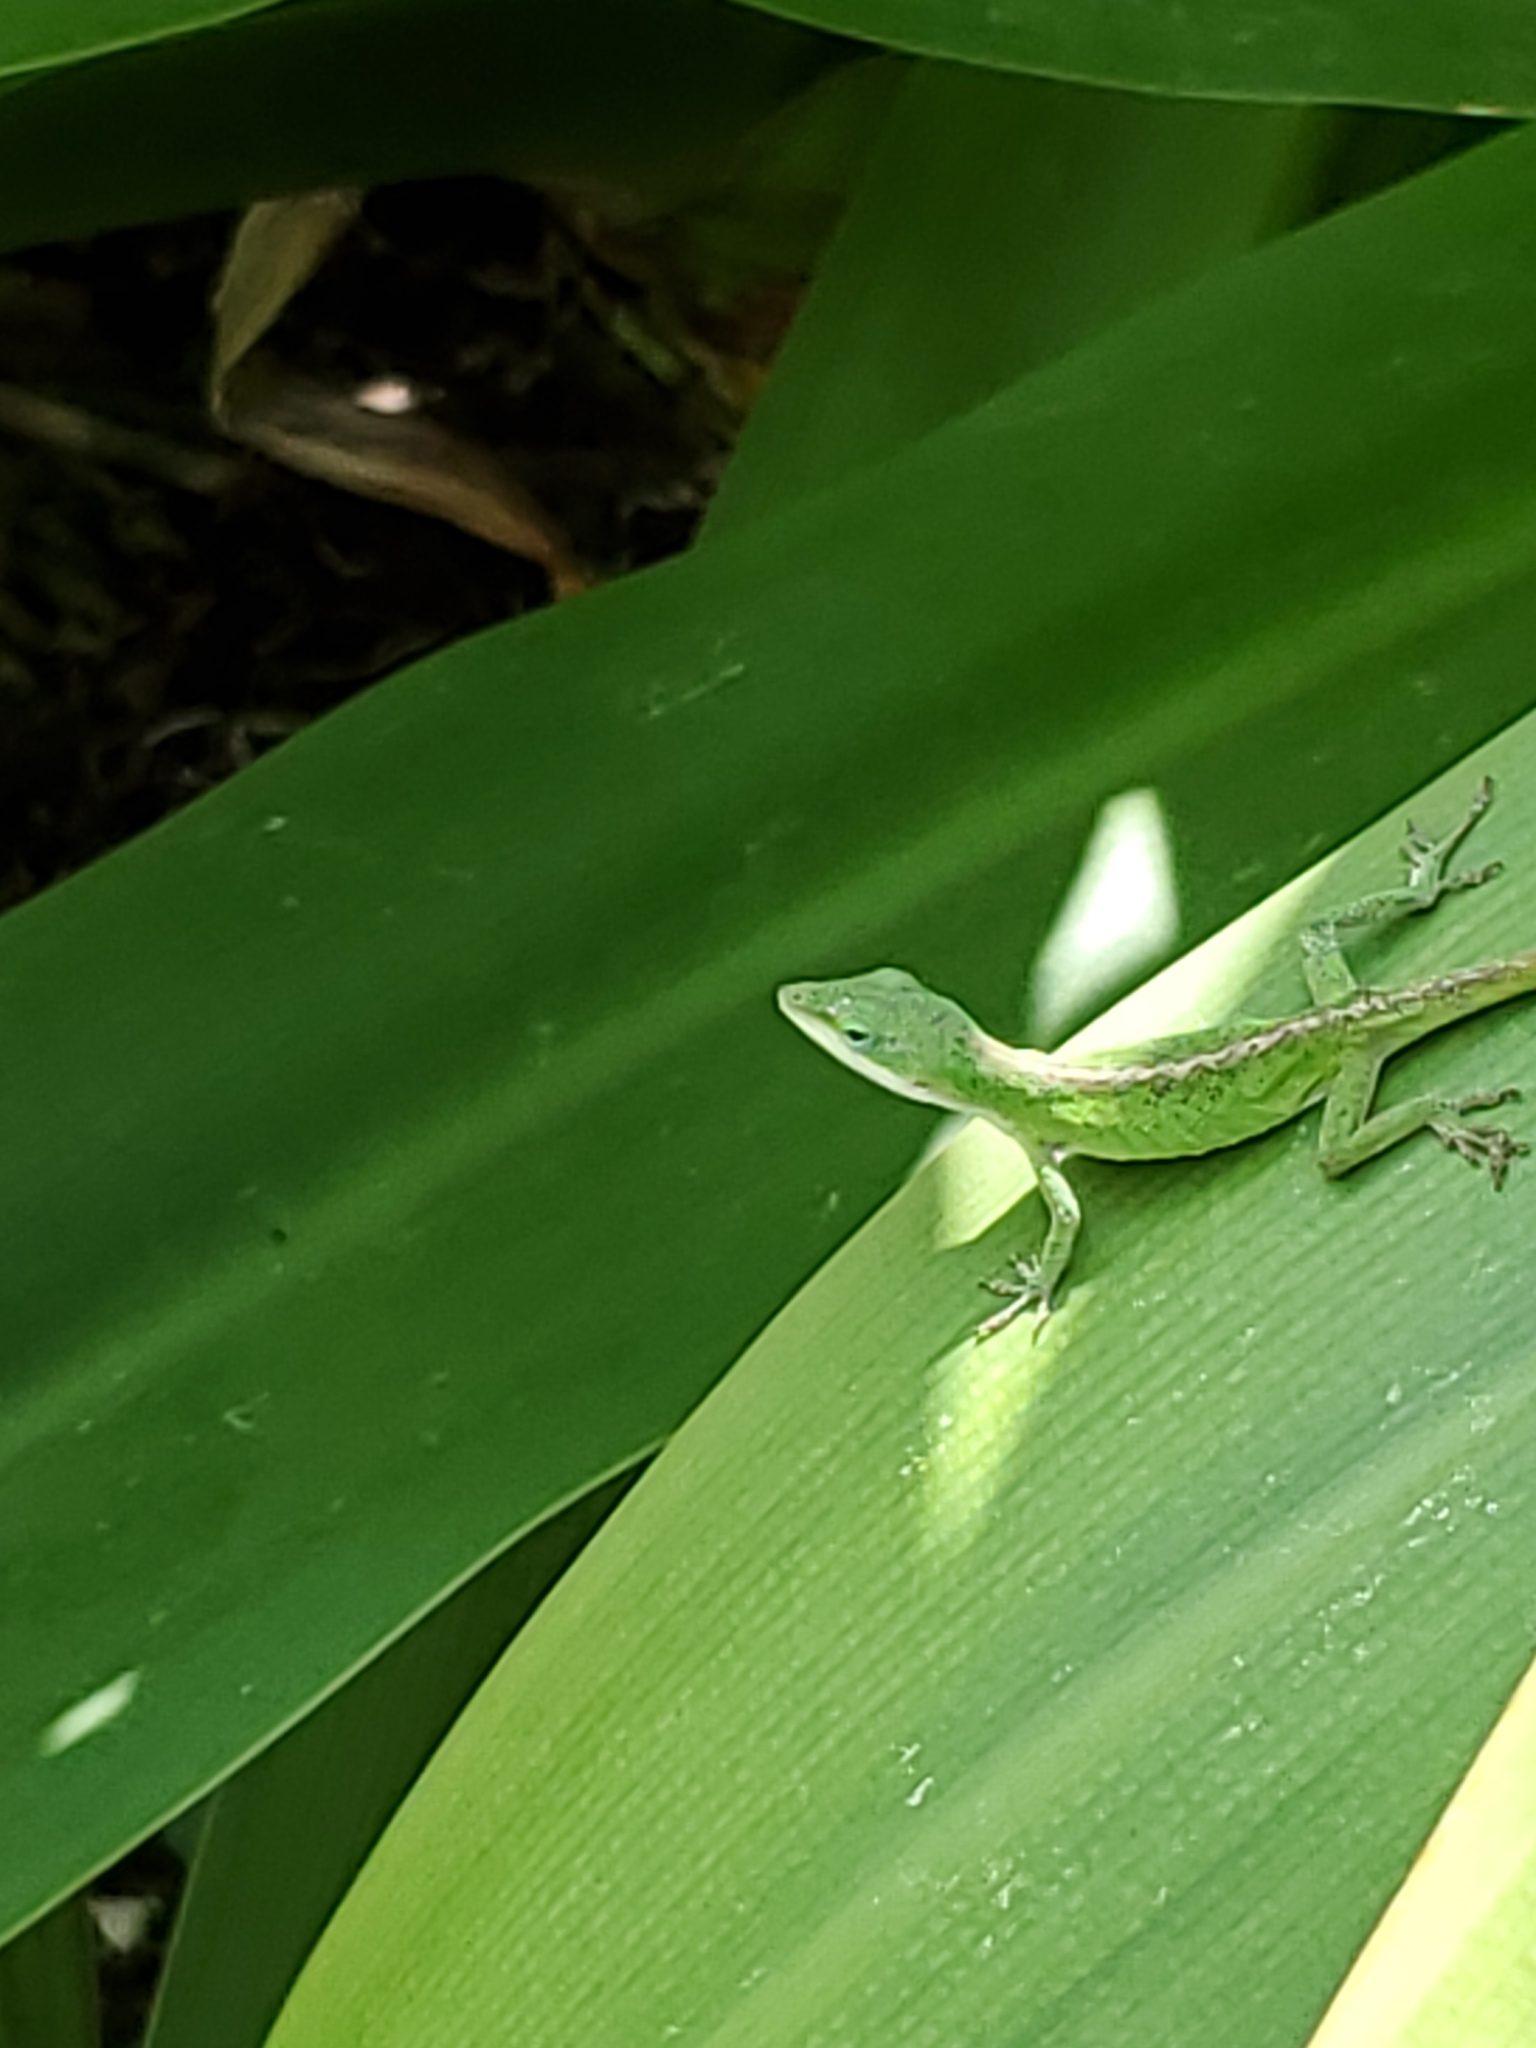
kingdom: Animalia
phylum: Chordata
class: Squamata
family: Dactyloidae
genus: Anolis
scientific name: Anolis carolinensis
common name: Green anole
